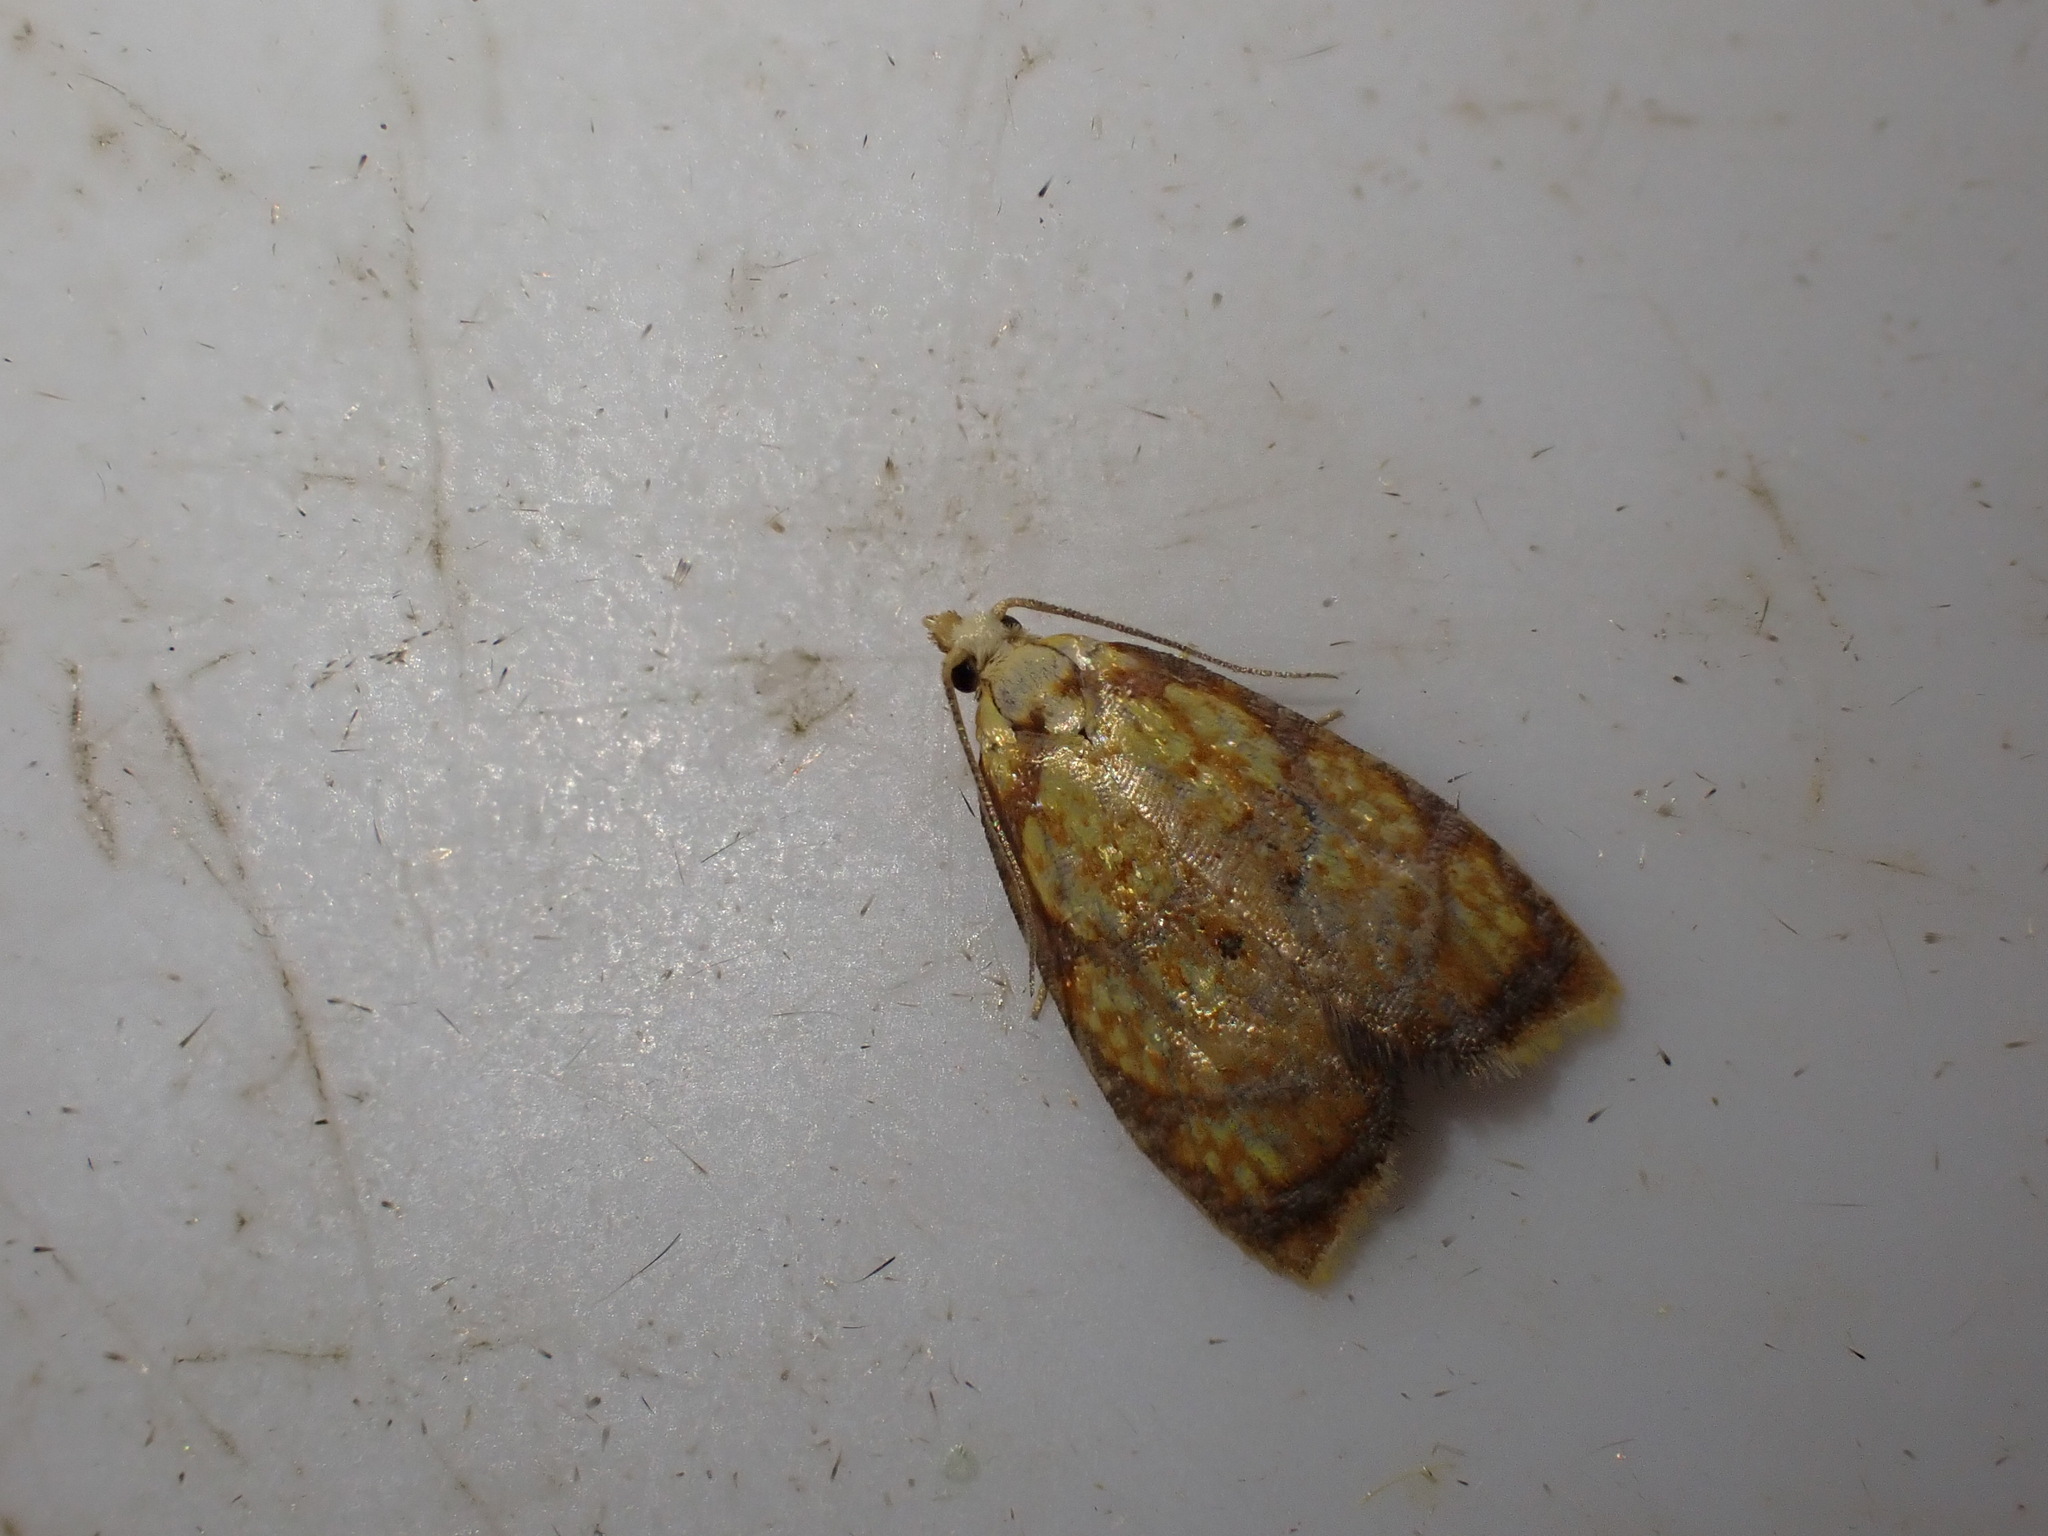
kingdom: Animalia
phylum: Arthropoda
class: Insecta
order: Lepidoptera
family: Tortricidae
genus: Acleris
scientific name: Acleris bergmanniana
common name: Yellow rose button
